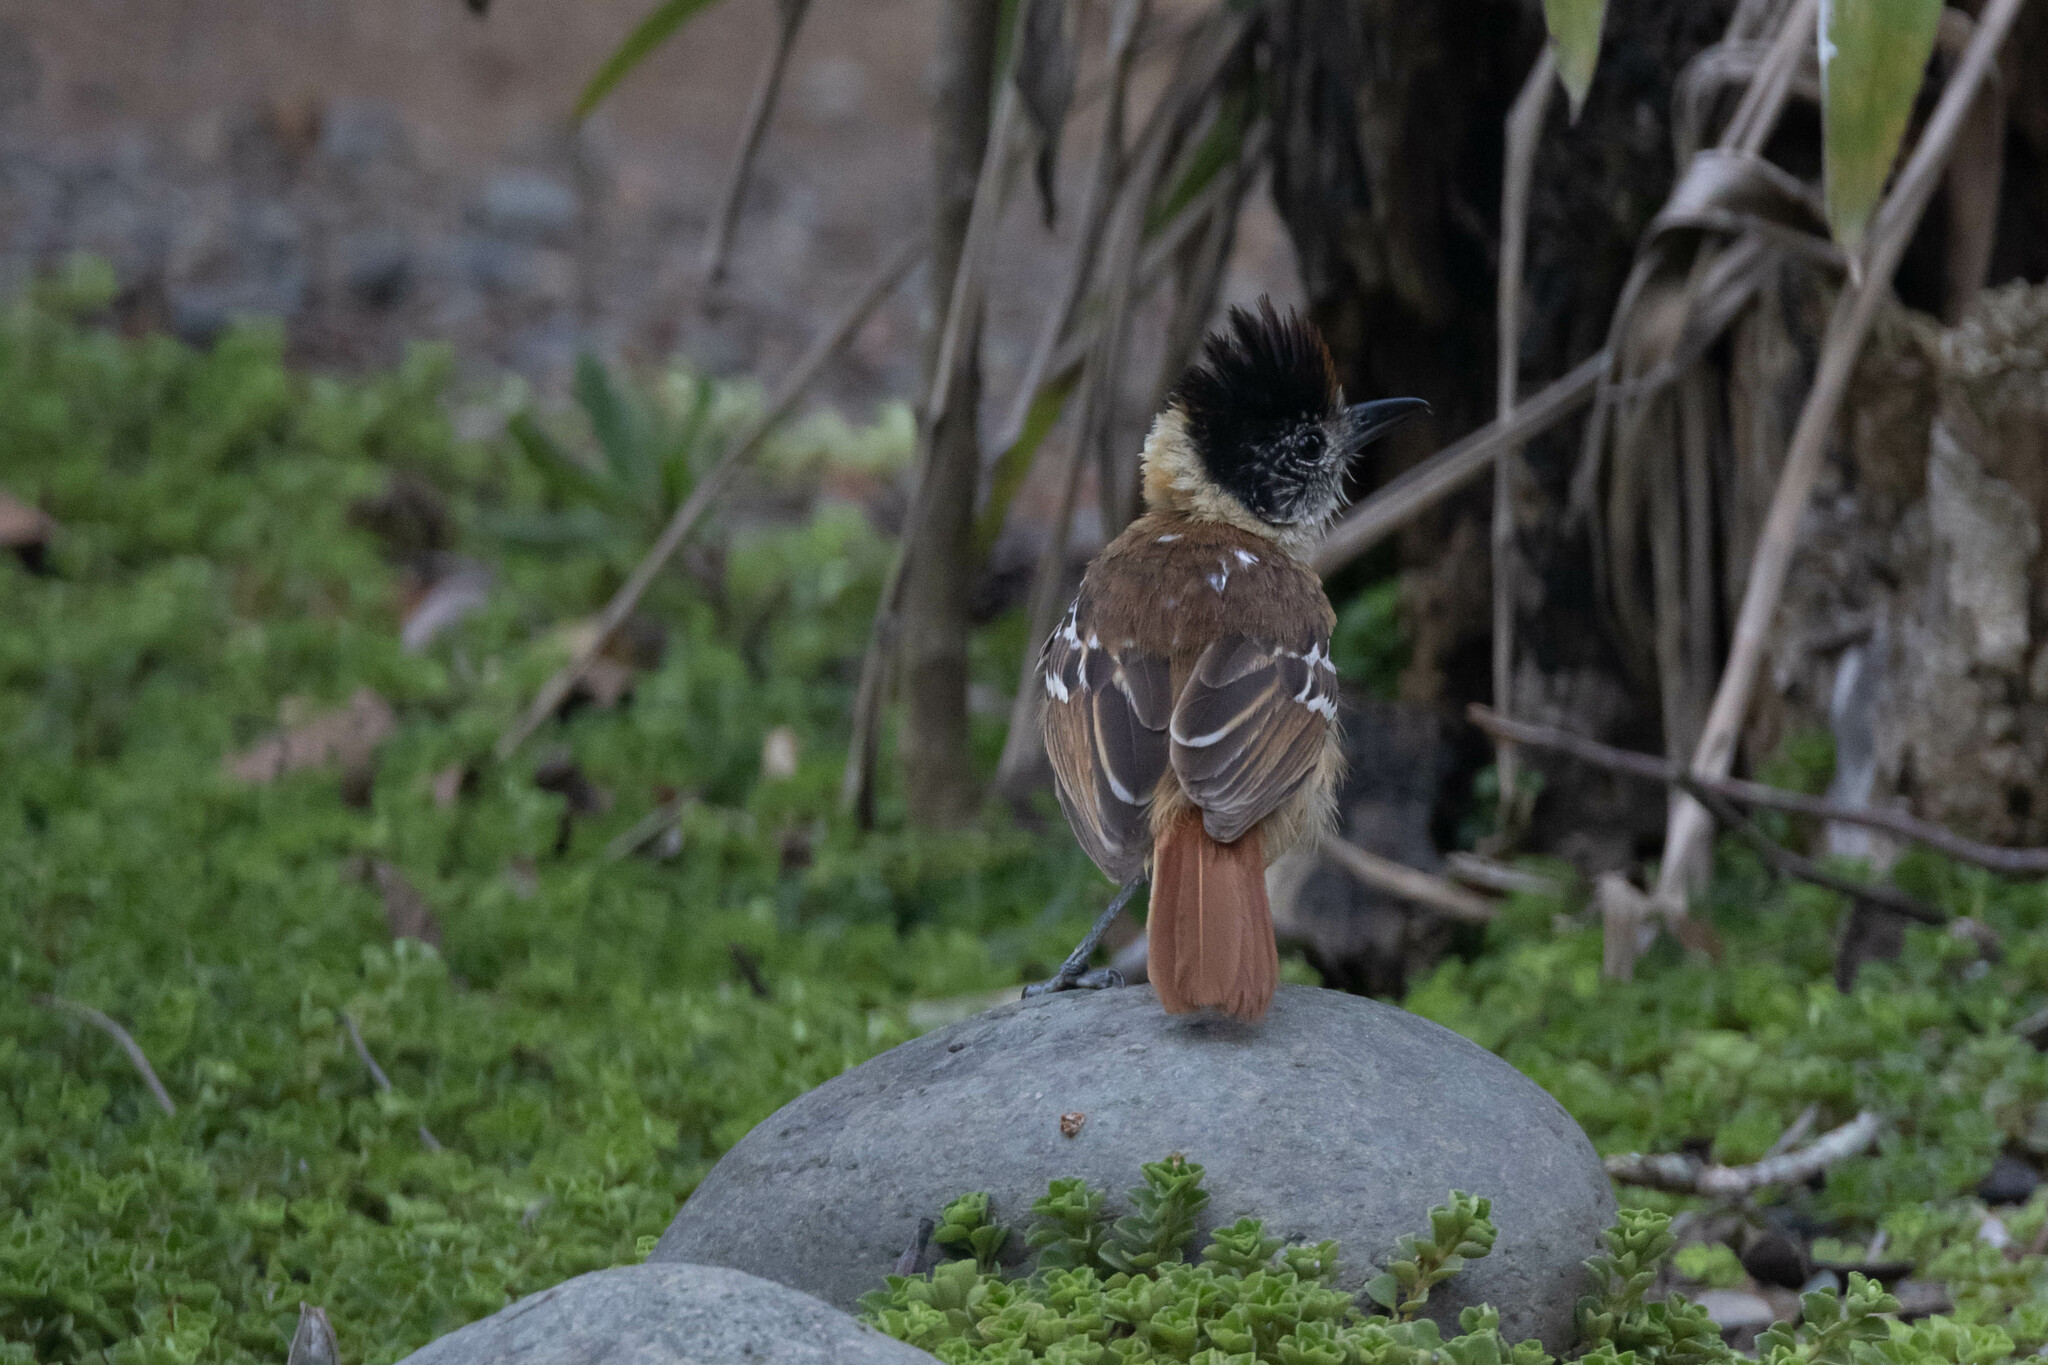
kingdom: Animalia
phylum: Chordata
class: Aves
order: Passeriformes
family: Thamnophilidae
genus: Thamnophilus
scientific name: Thamnophilus bernardi
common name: Collared antshrike
